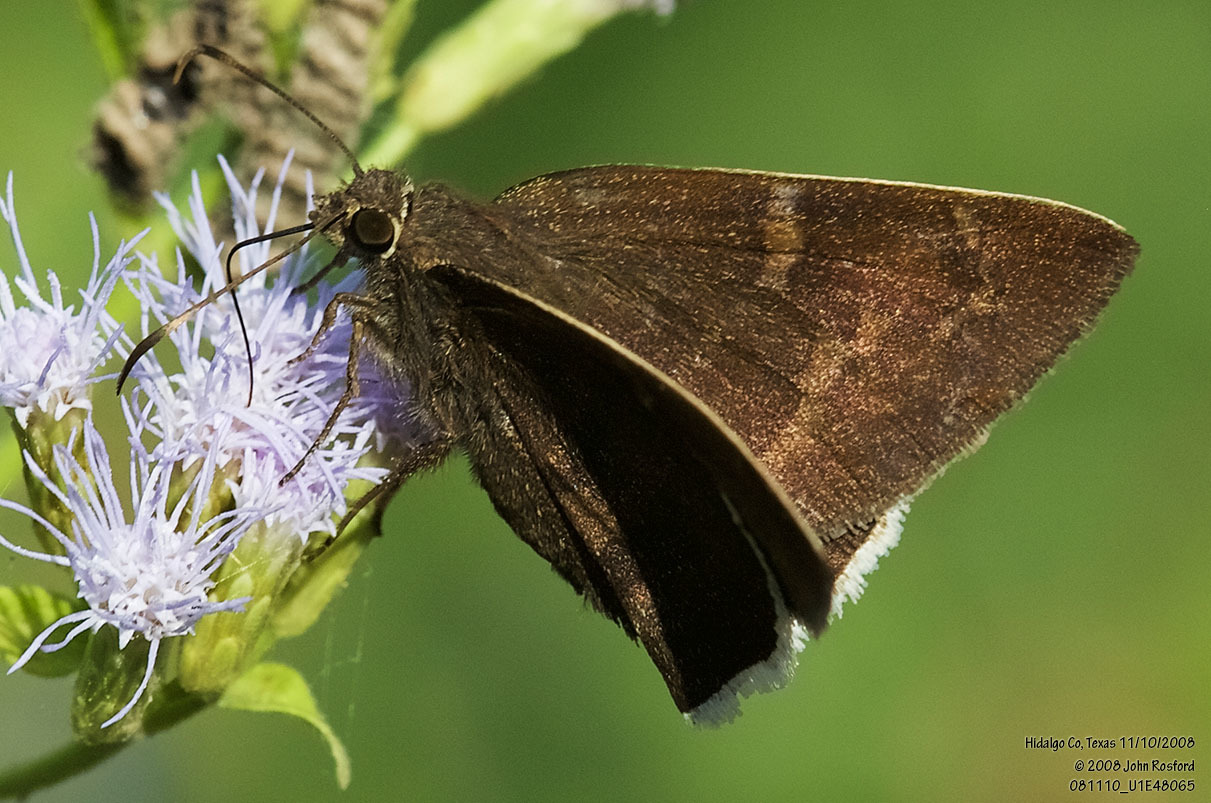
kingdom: Animalia
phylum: Arthropoda
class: Insecta
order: Lepidoptera
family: Hesperiidae
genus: Achalarus
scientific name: Achalarus Murgaria albociliatus
